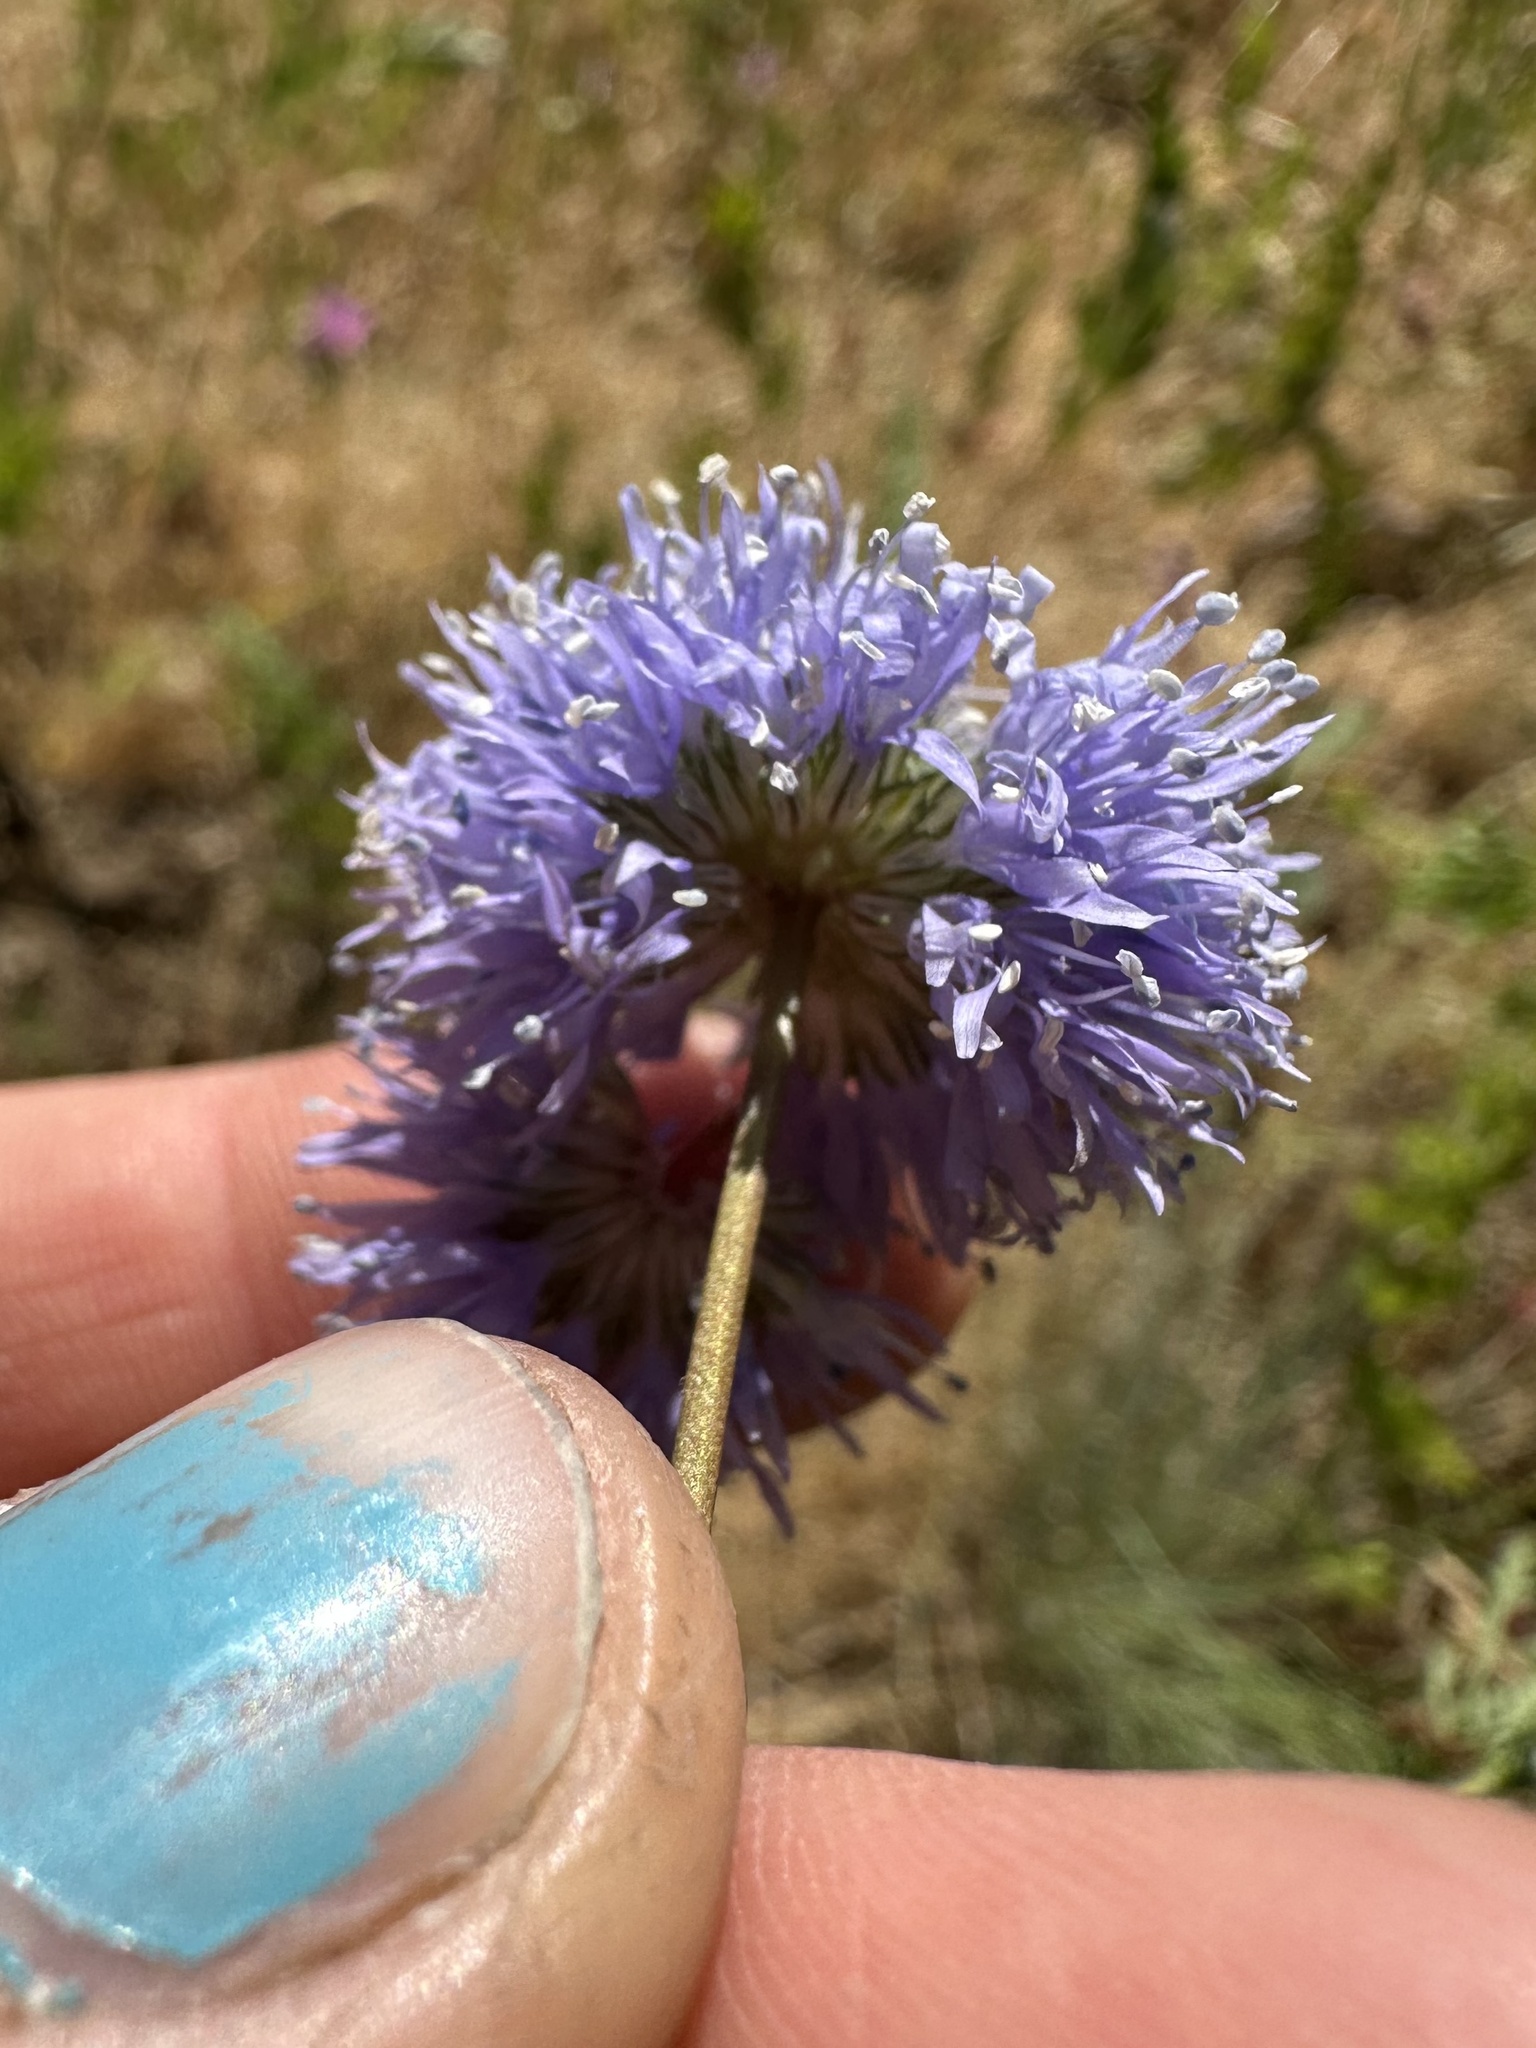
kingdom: Plantae
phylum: Tracheophyta
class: Magnoliopsida
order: Ericales
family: Polemoniaceae
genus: Gilia
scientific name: Gilia capitata
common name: Bluehead gilia
